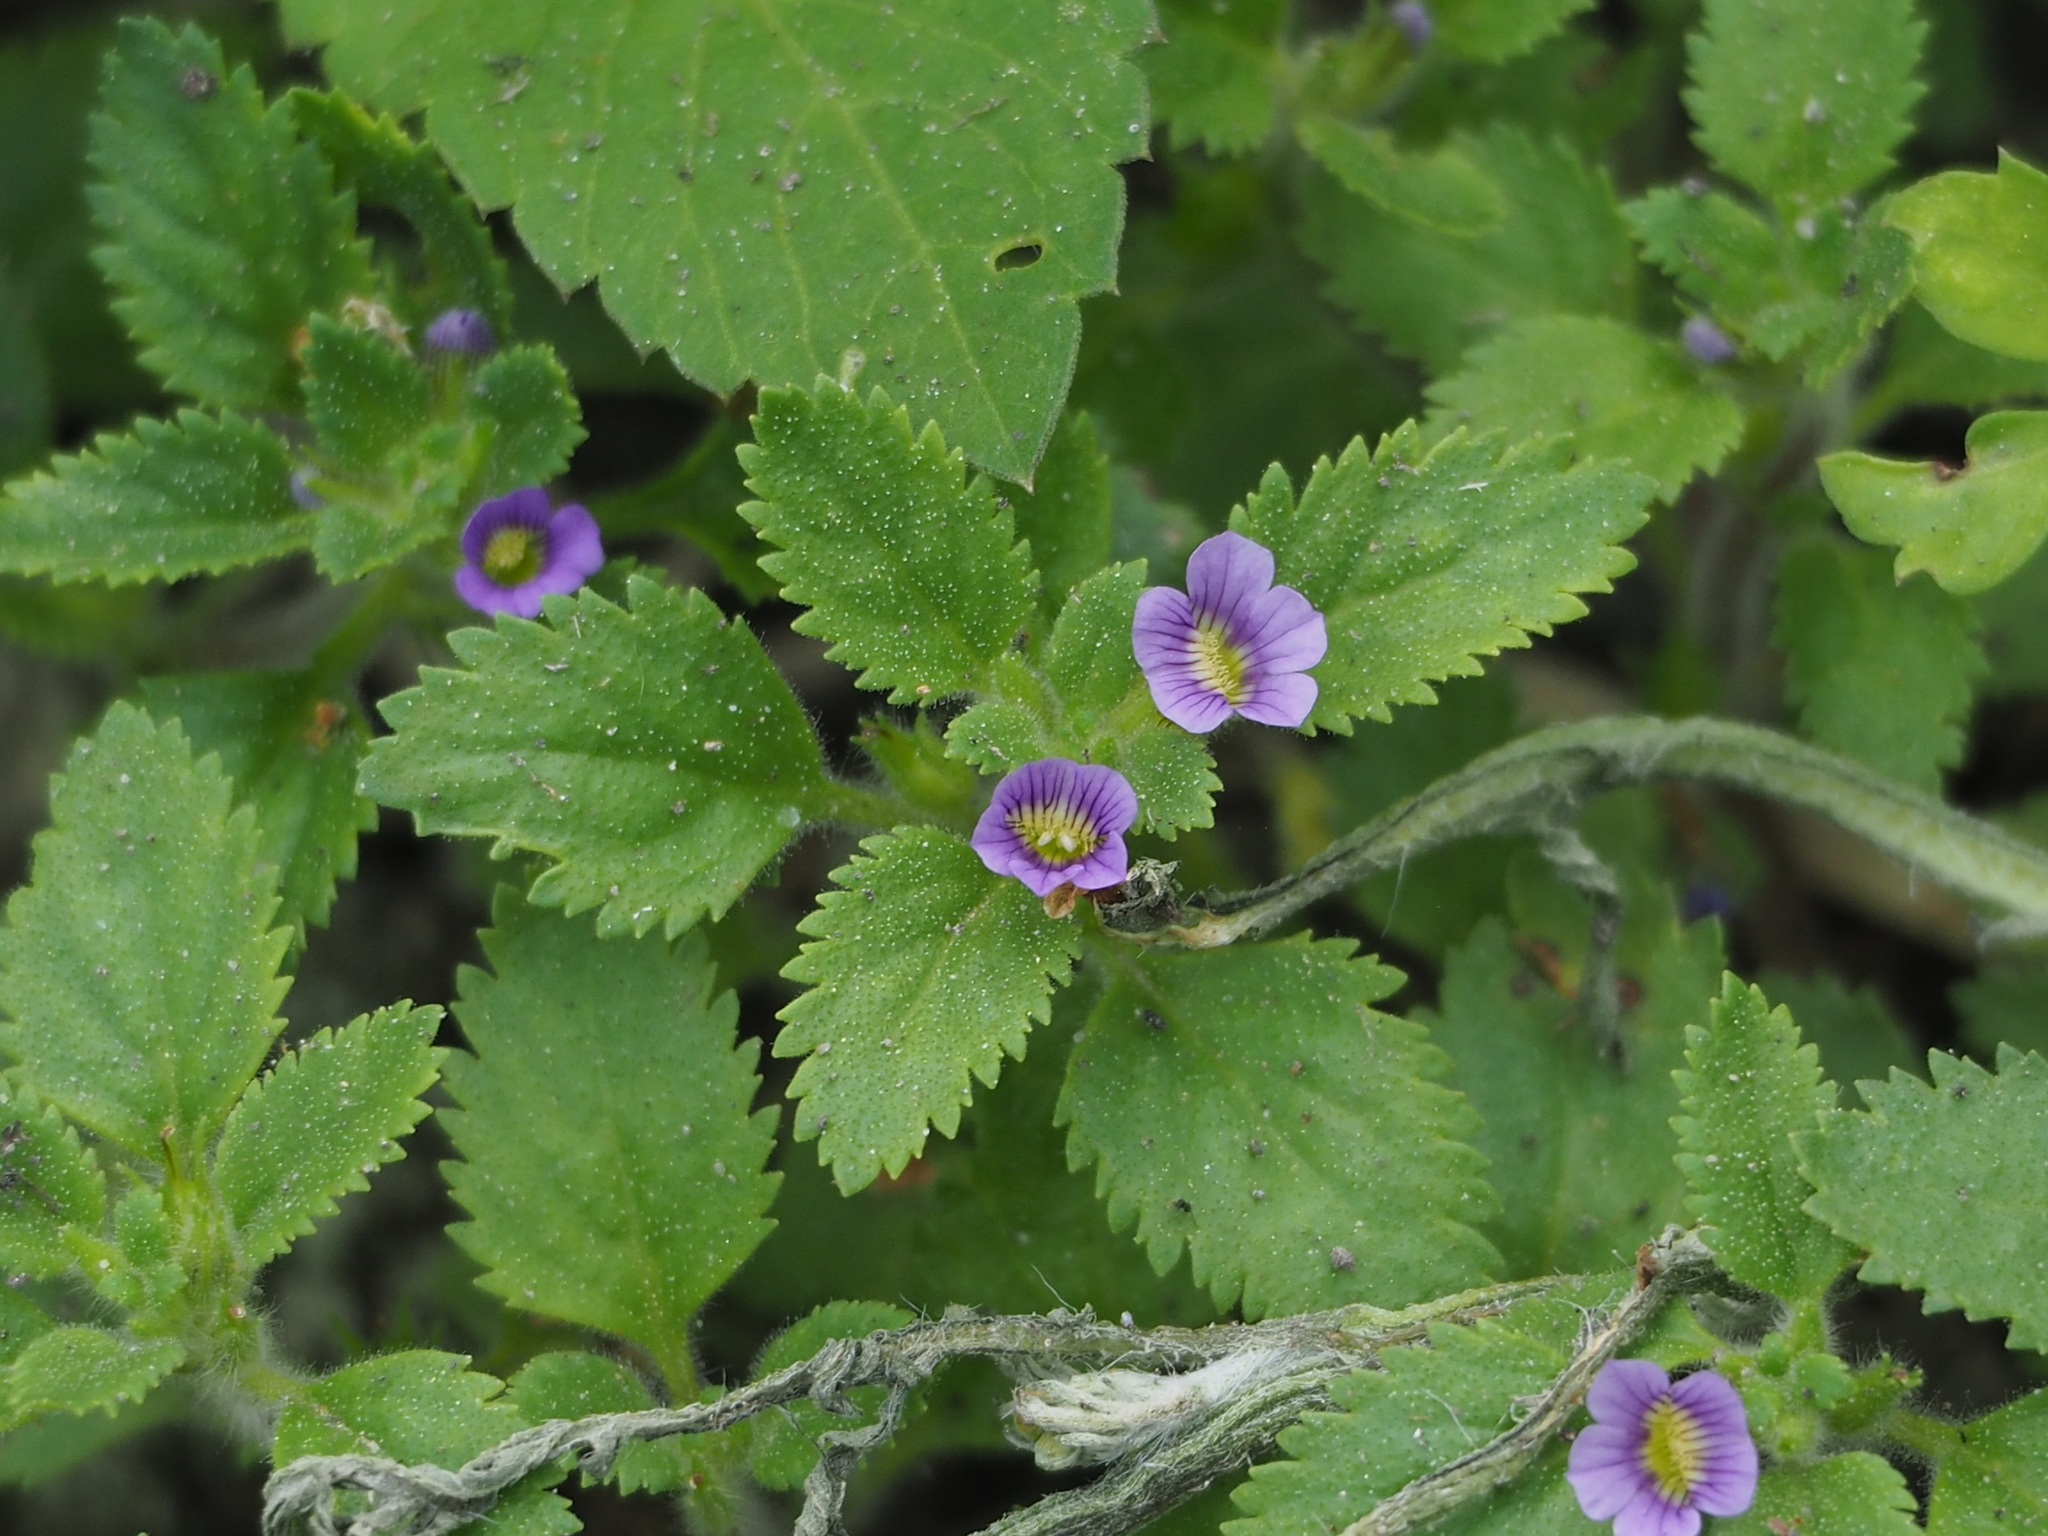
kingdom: Plantae
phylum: Tracheophyta
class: Magnoliopsida
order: Lamiales
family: Plantaginaceae
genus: Stemodia
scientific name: Stemodia verticillata
